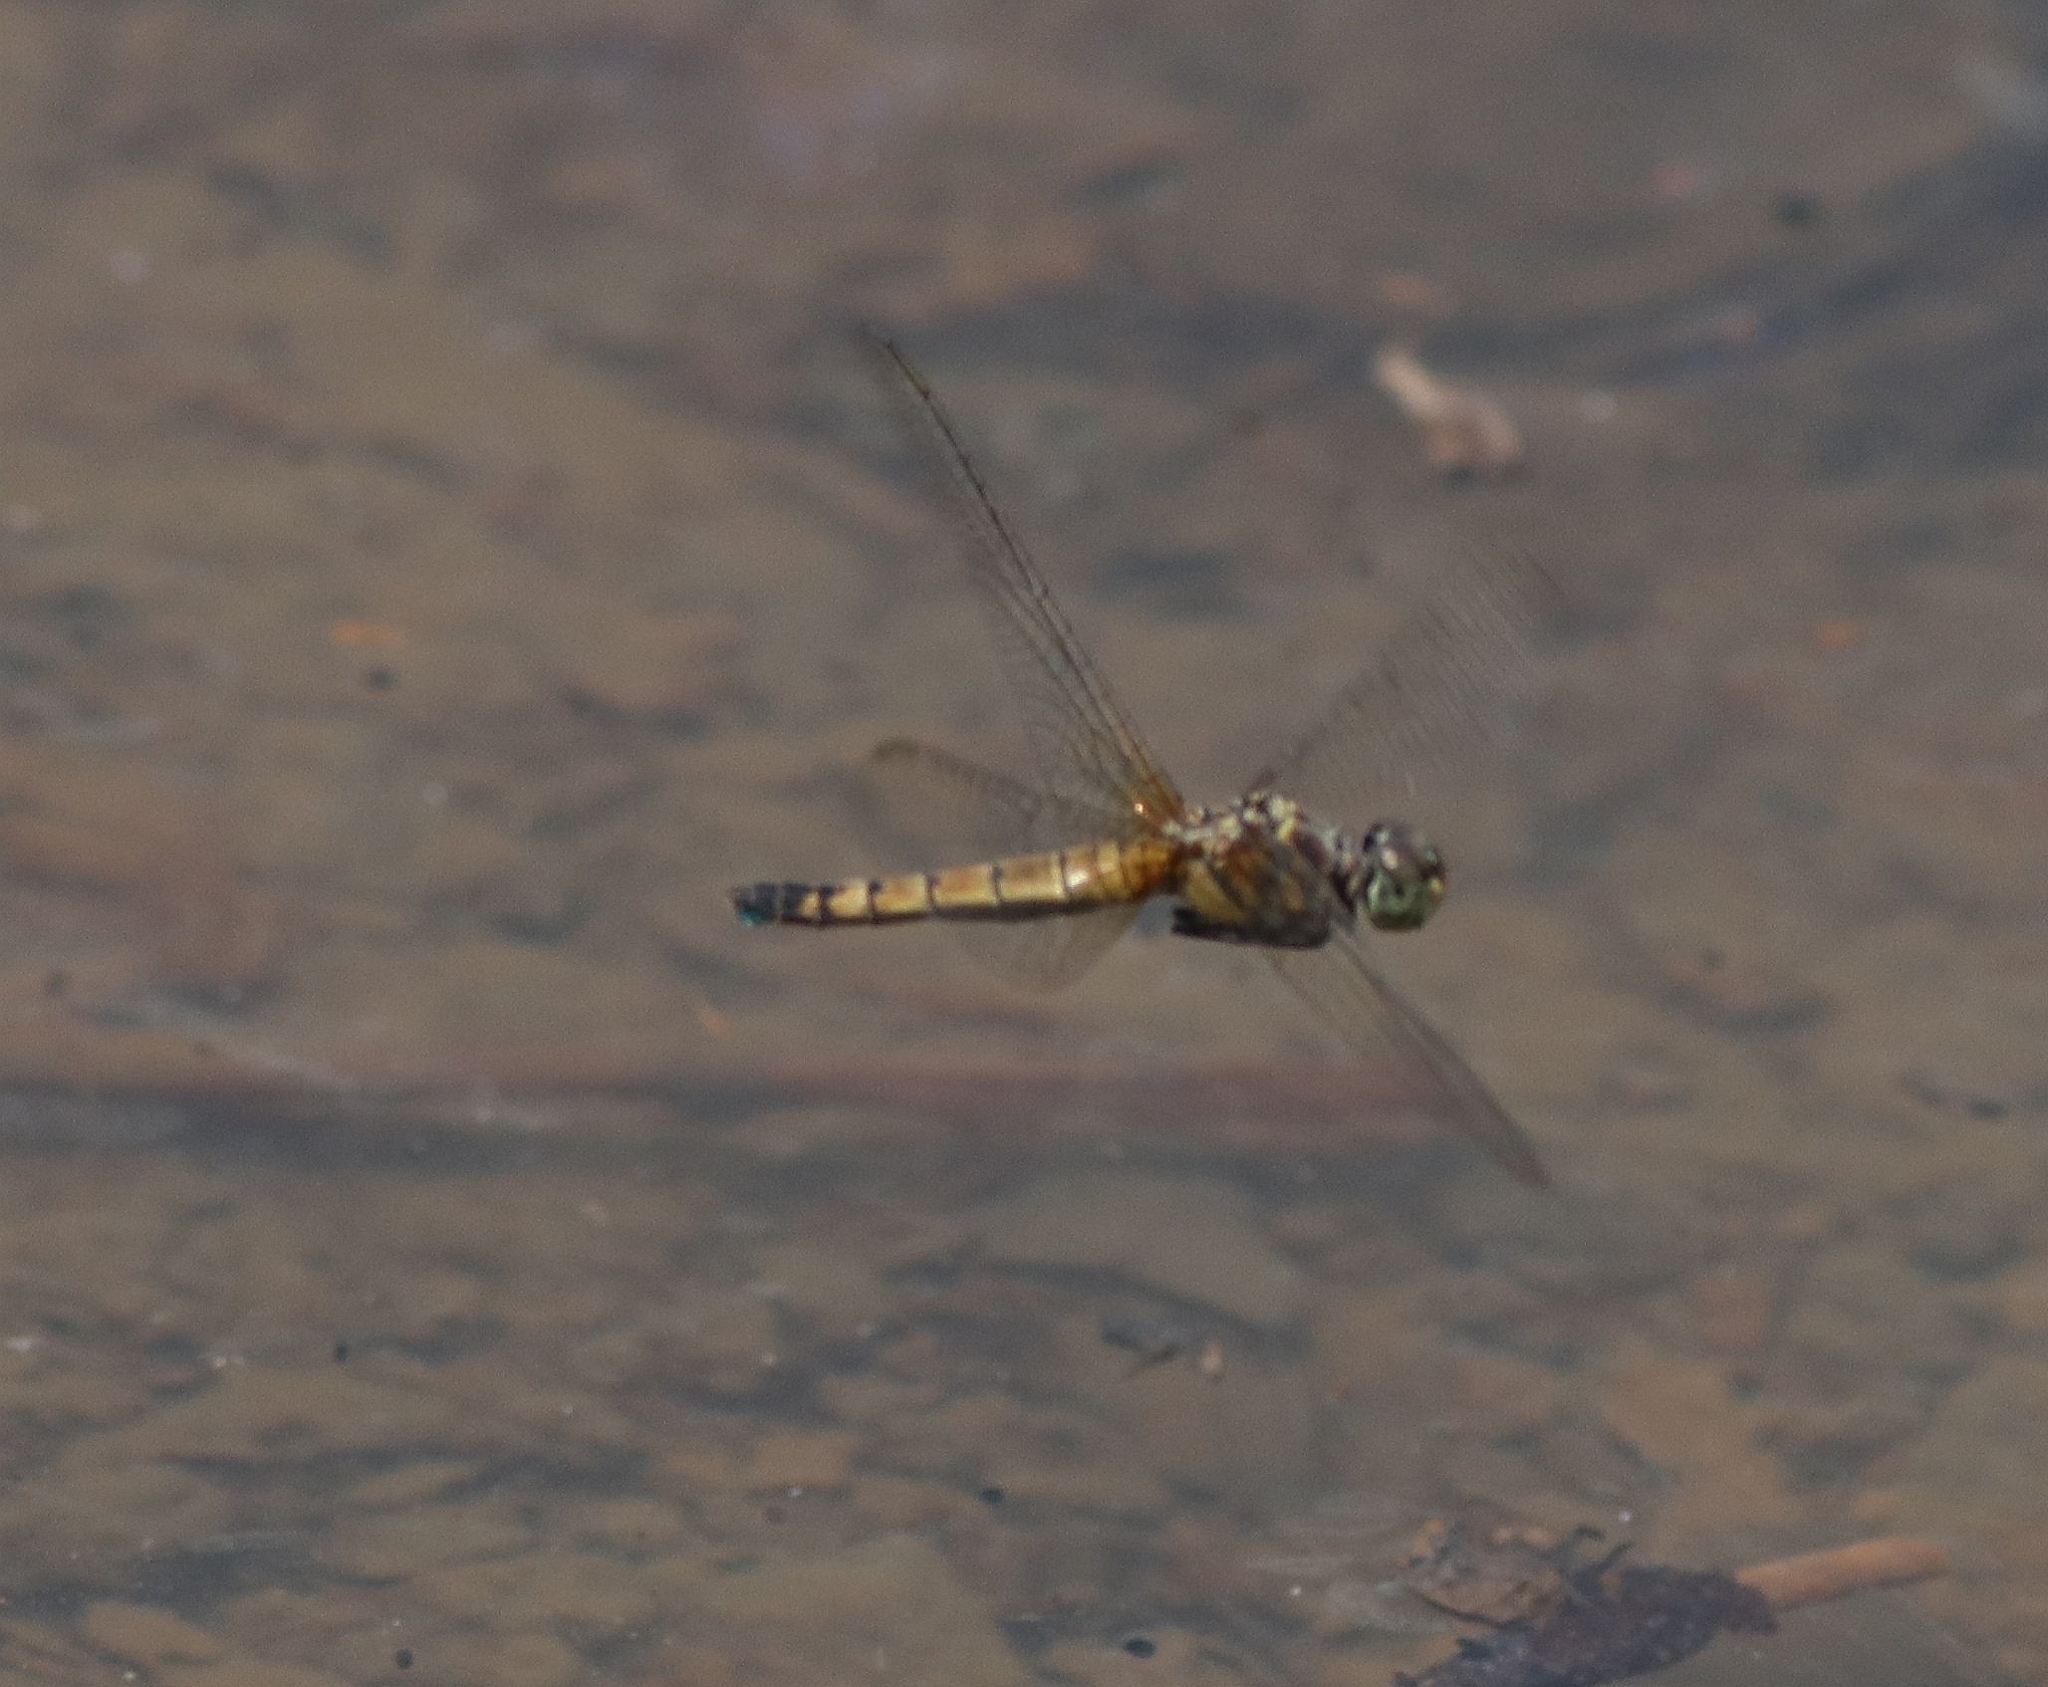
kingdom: Animalia
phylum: Arthropoda
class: Insecta
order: Odonata
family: Libellulidae
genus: Brachydiplax
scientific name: Brachydiplax chalybea
